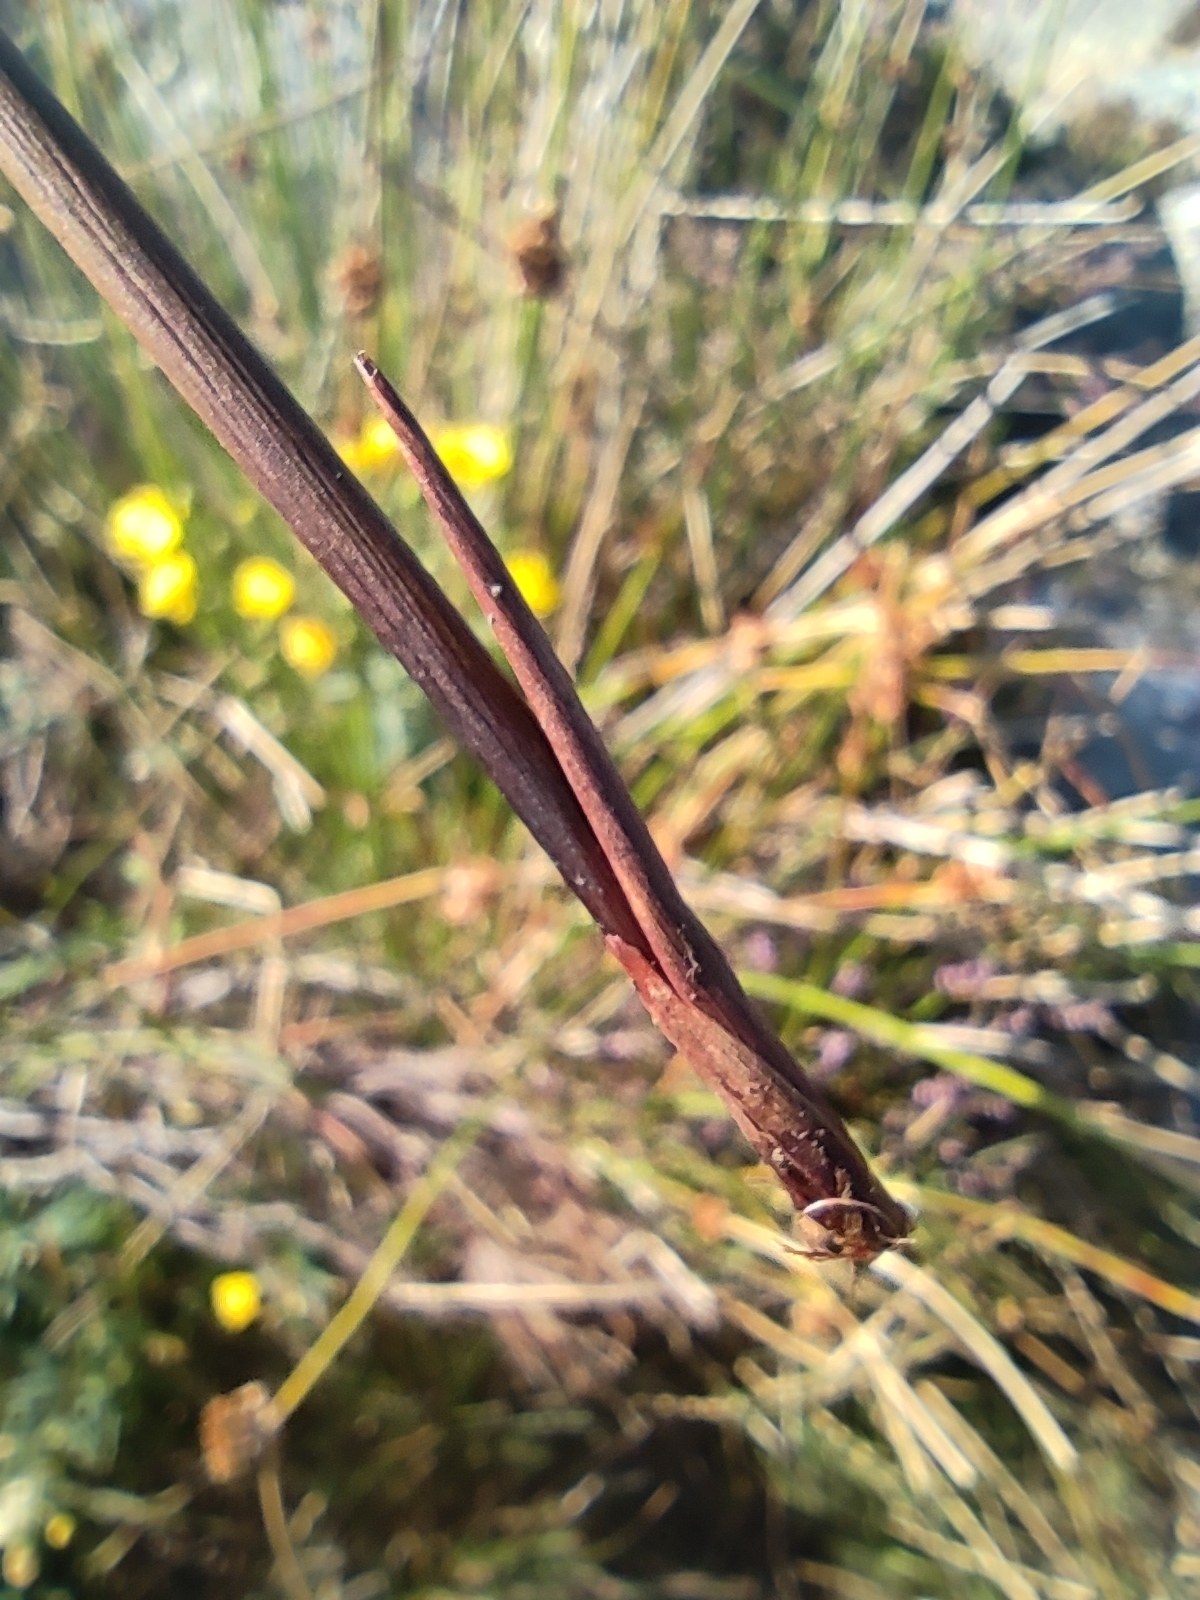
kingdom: Plantae
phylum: Tracheophyta
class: Liliopsida
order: Poales
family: Juncaceae
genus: Juncus
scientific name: Juncus effusus
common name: Soft rush
